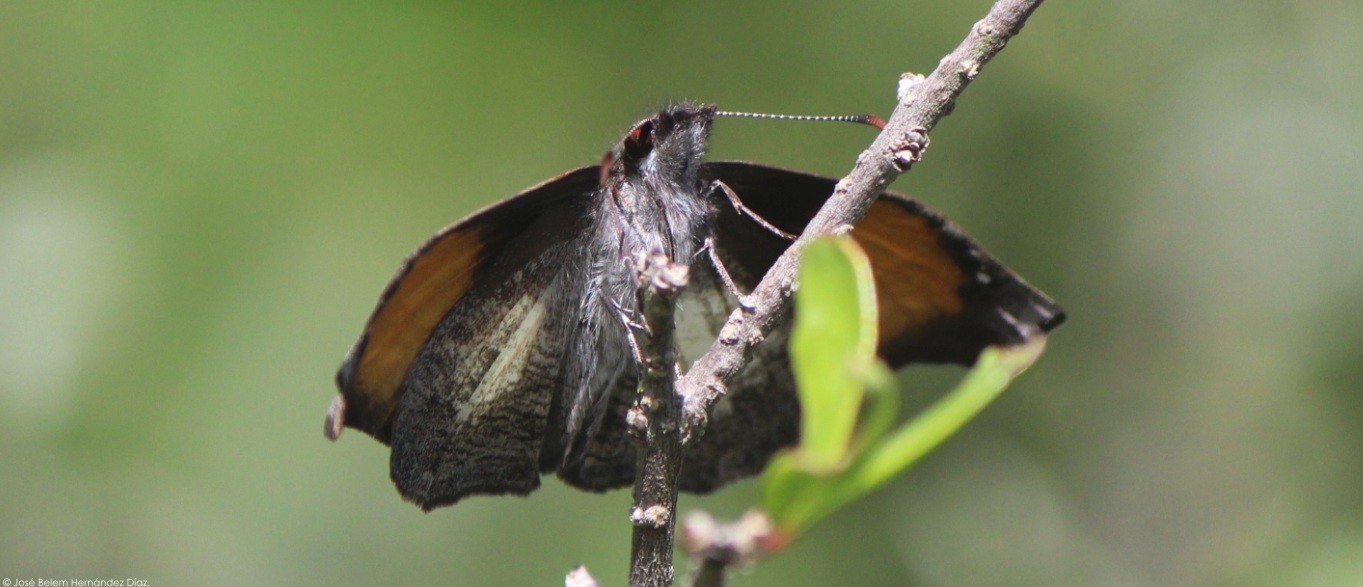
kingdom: Animalia
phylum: Arthropoda
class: Insecta
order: Lepidoptera
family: Hesperiidae
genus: Theagenes
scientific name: Theagenes
